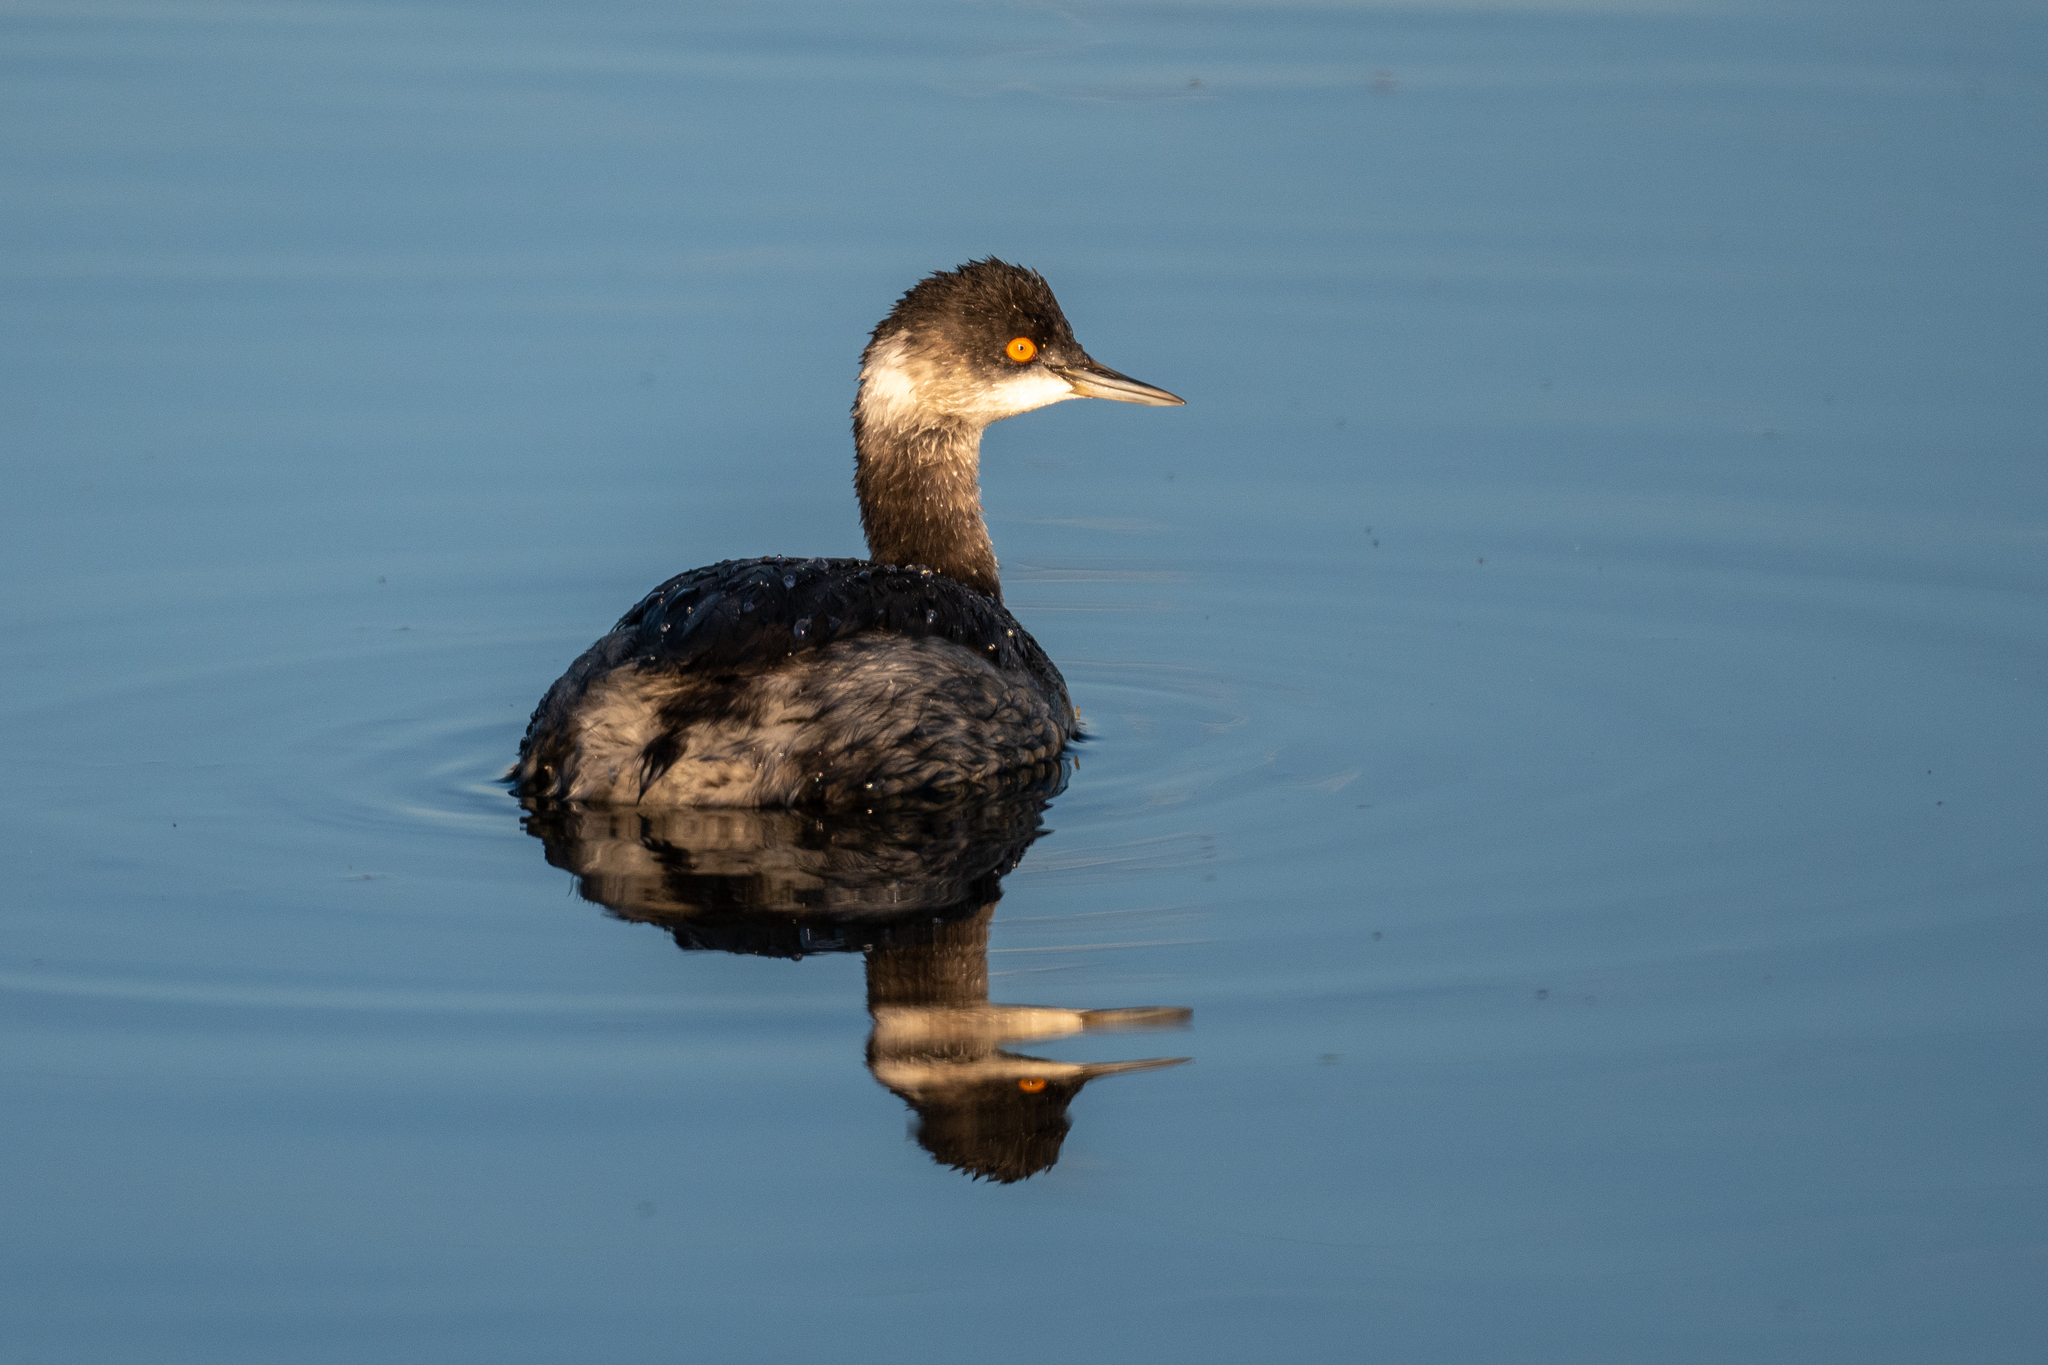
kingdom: Animalia
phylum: Chordata
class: Aves
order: Podicipediformes
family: Podicipedidae
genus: Podiceps
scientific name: Podiceps nigricollis
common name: Black-necked grebe
